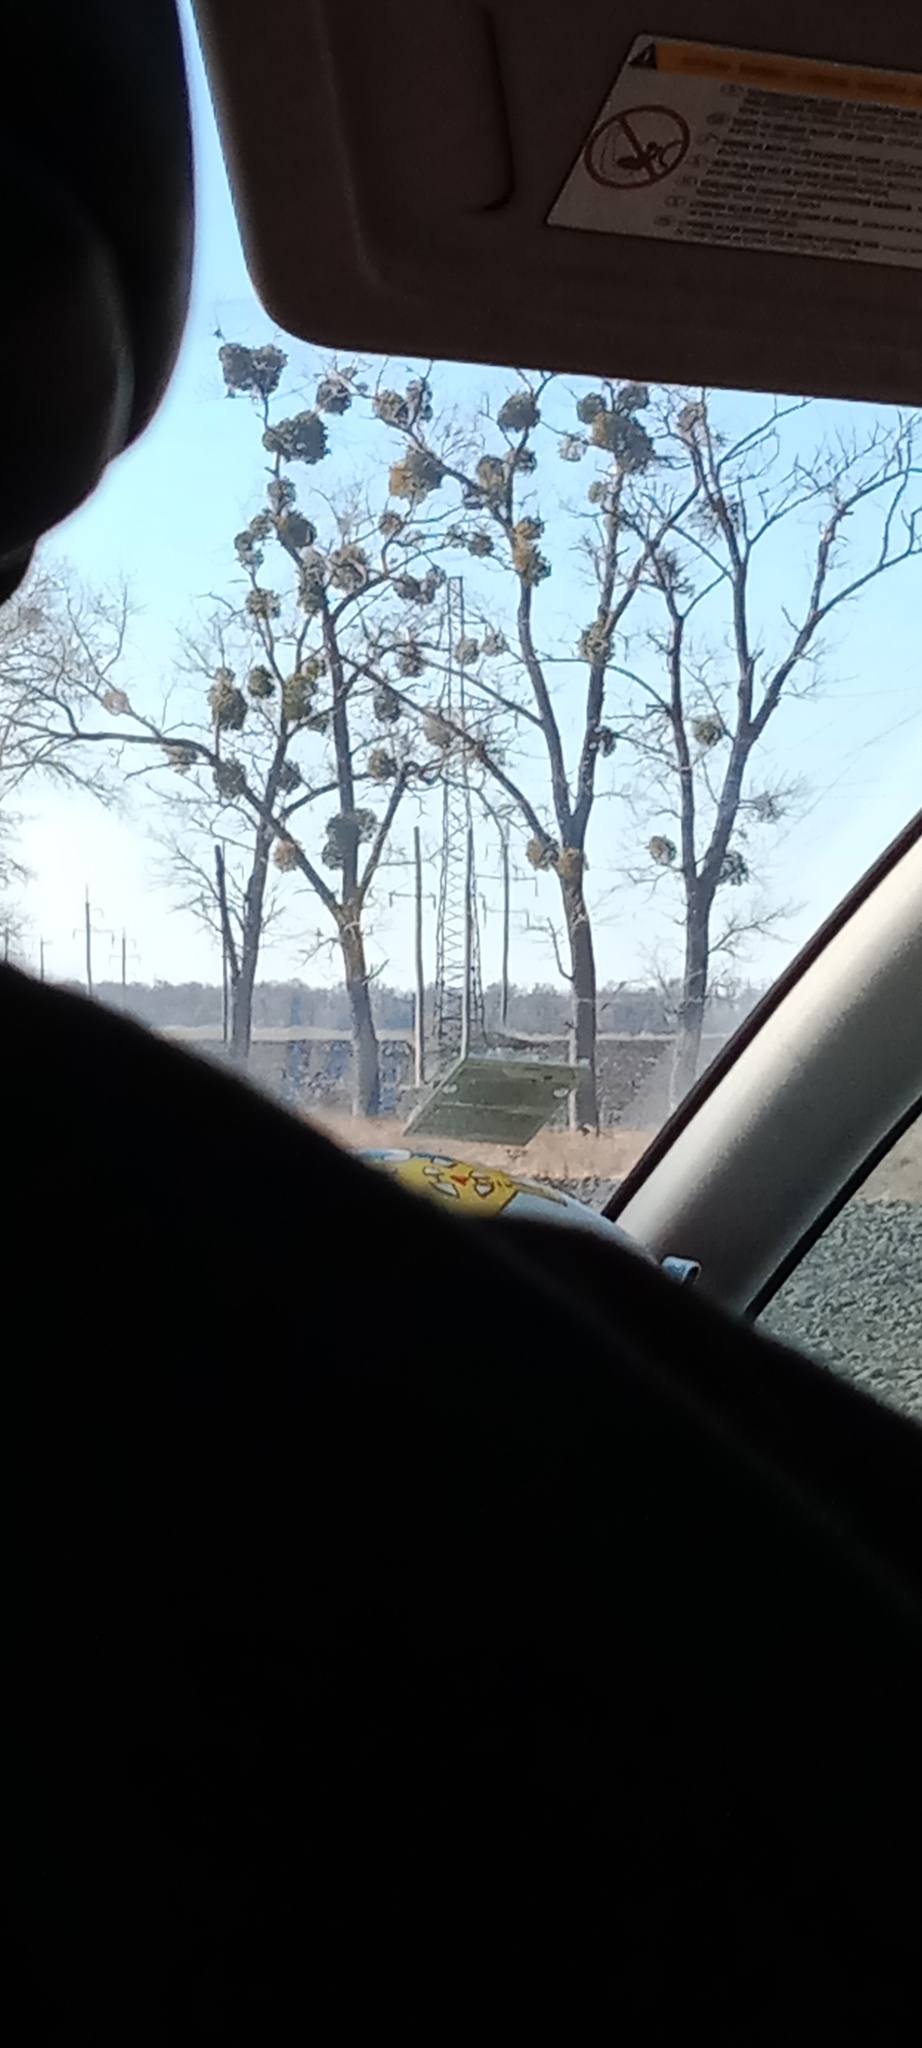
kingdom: Plantae
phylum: Tracheophyta
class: Magnoliopsida
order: Santalales
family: Viscaceae
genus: Viscum
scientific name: Viscum album
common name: Mistletoe
